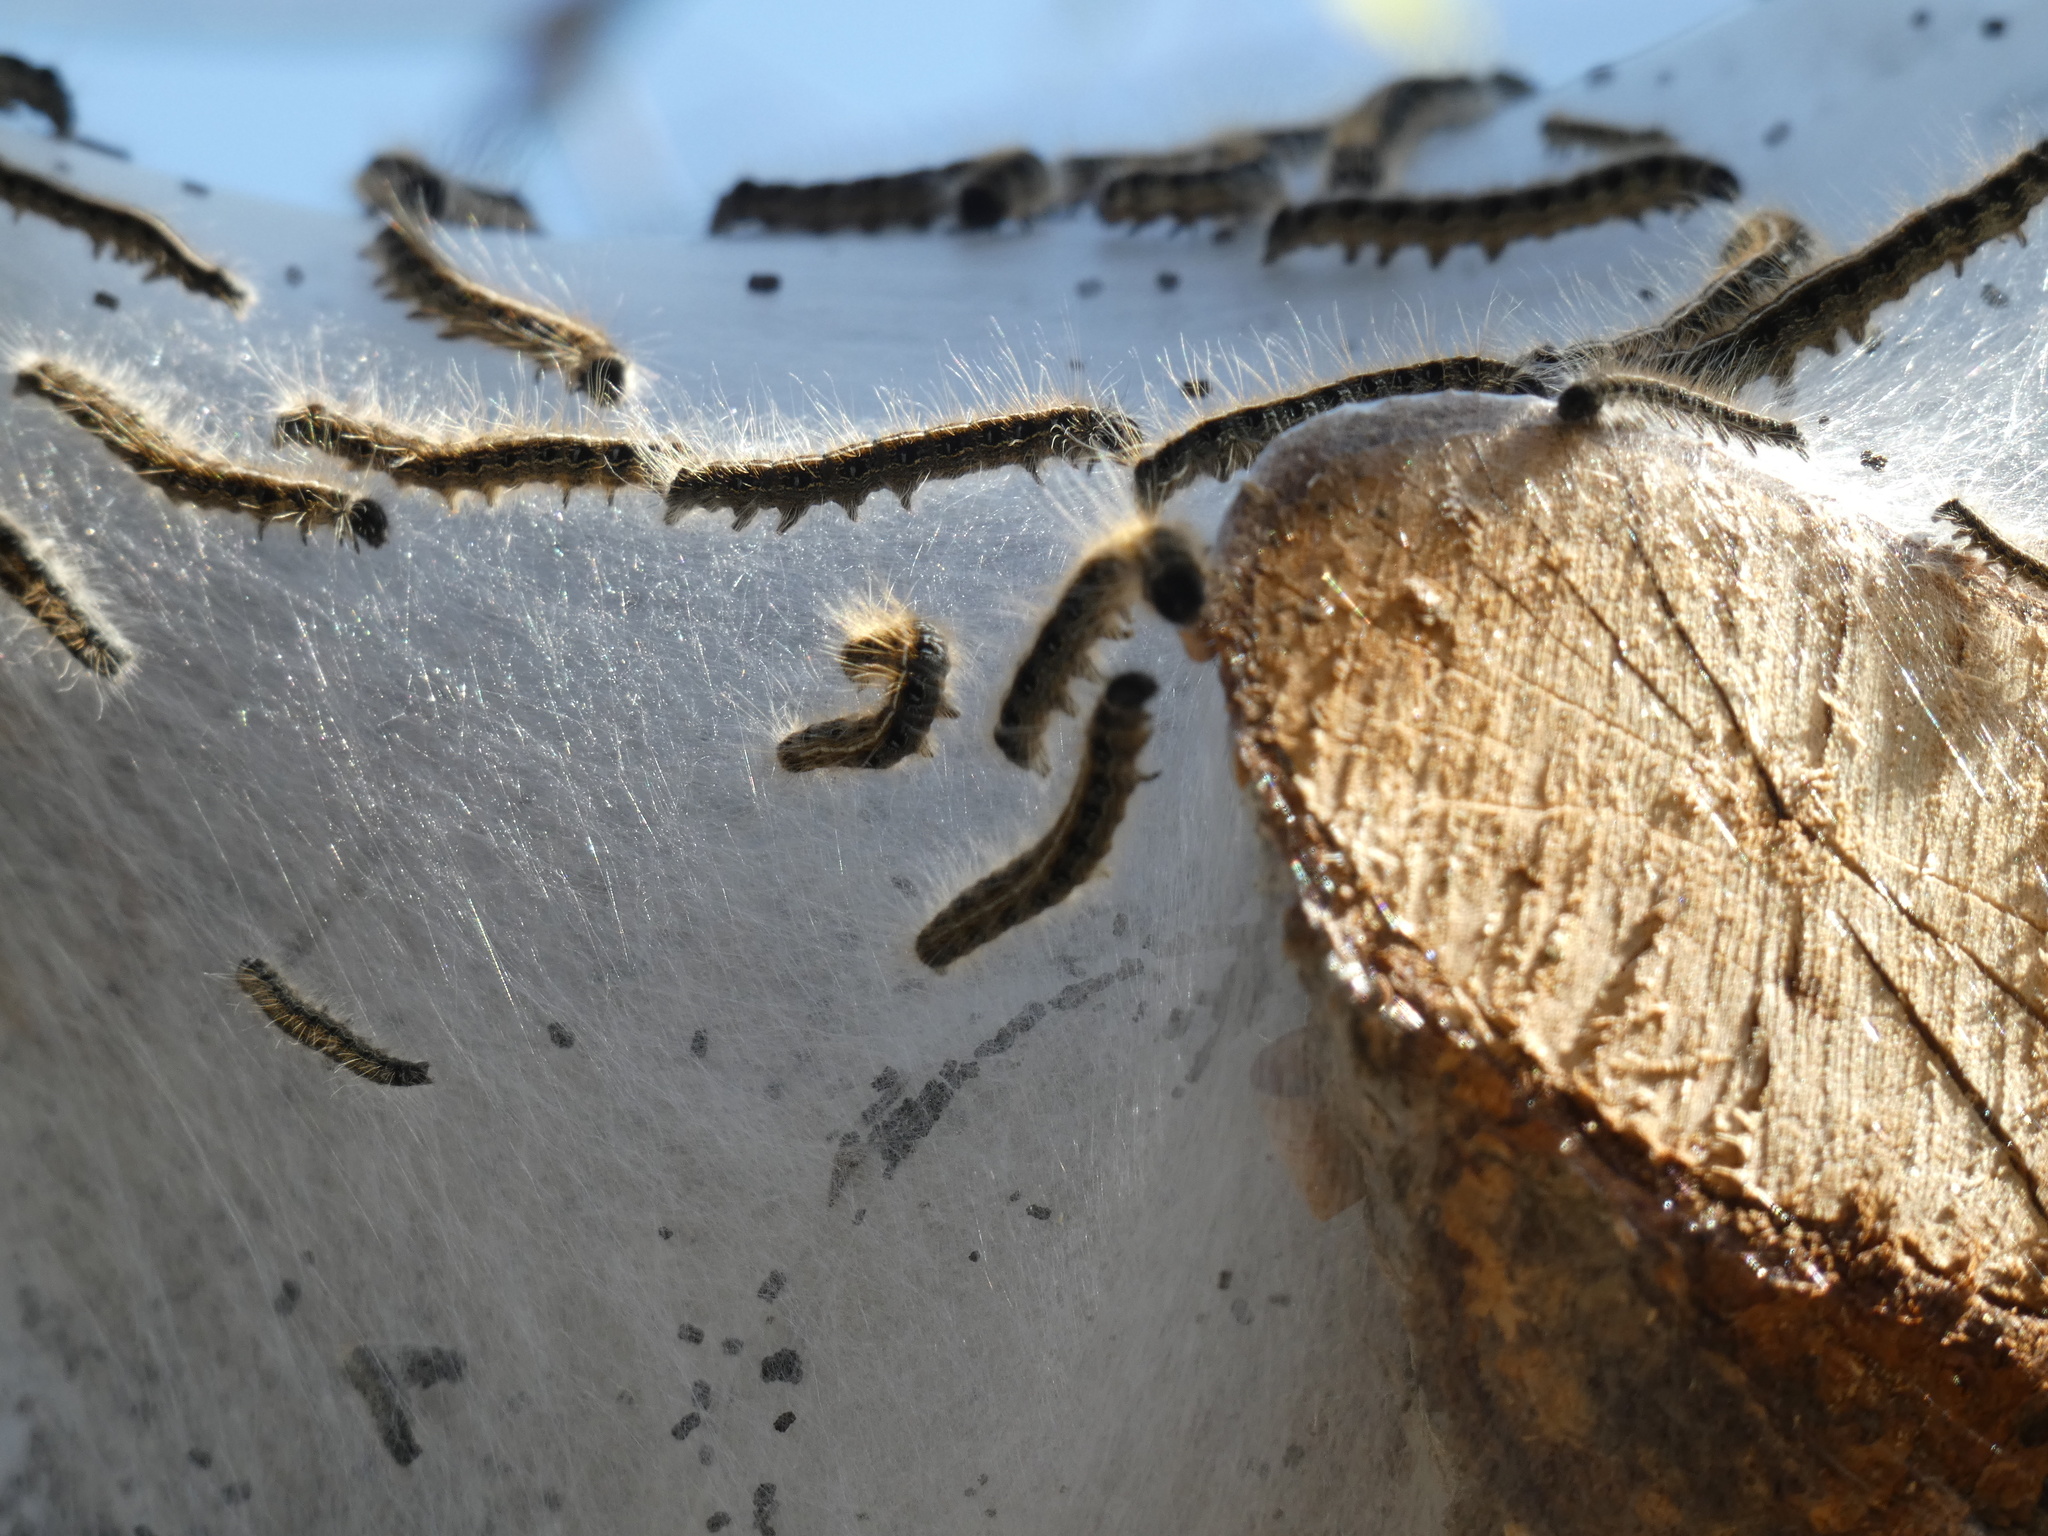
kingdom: Animalia
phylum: Arthropoda
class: Insecta
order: Lepidoptera
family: Lasiocampidae
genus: Malacosoma
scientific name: Malacosoma americana
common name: Eastern tent caterpillar moth
